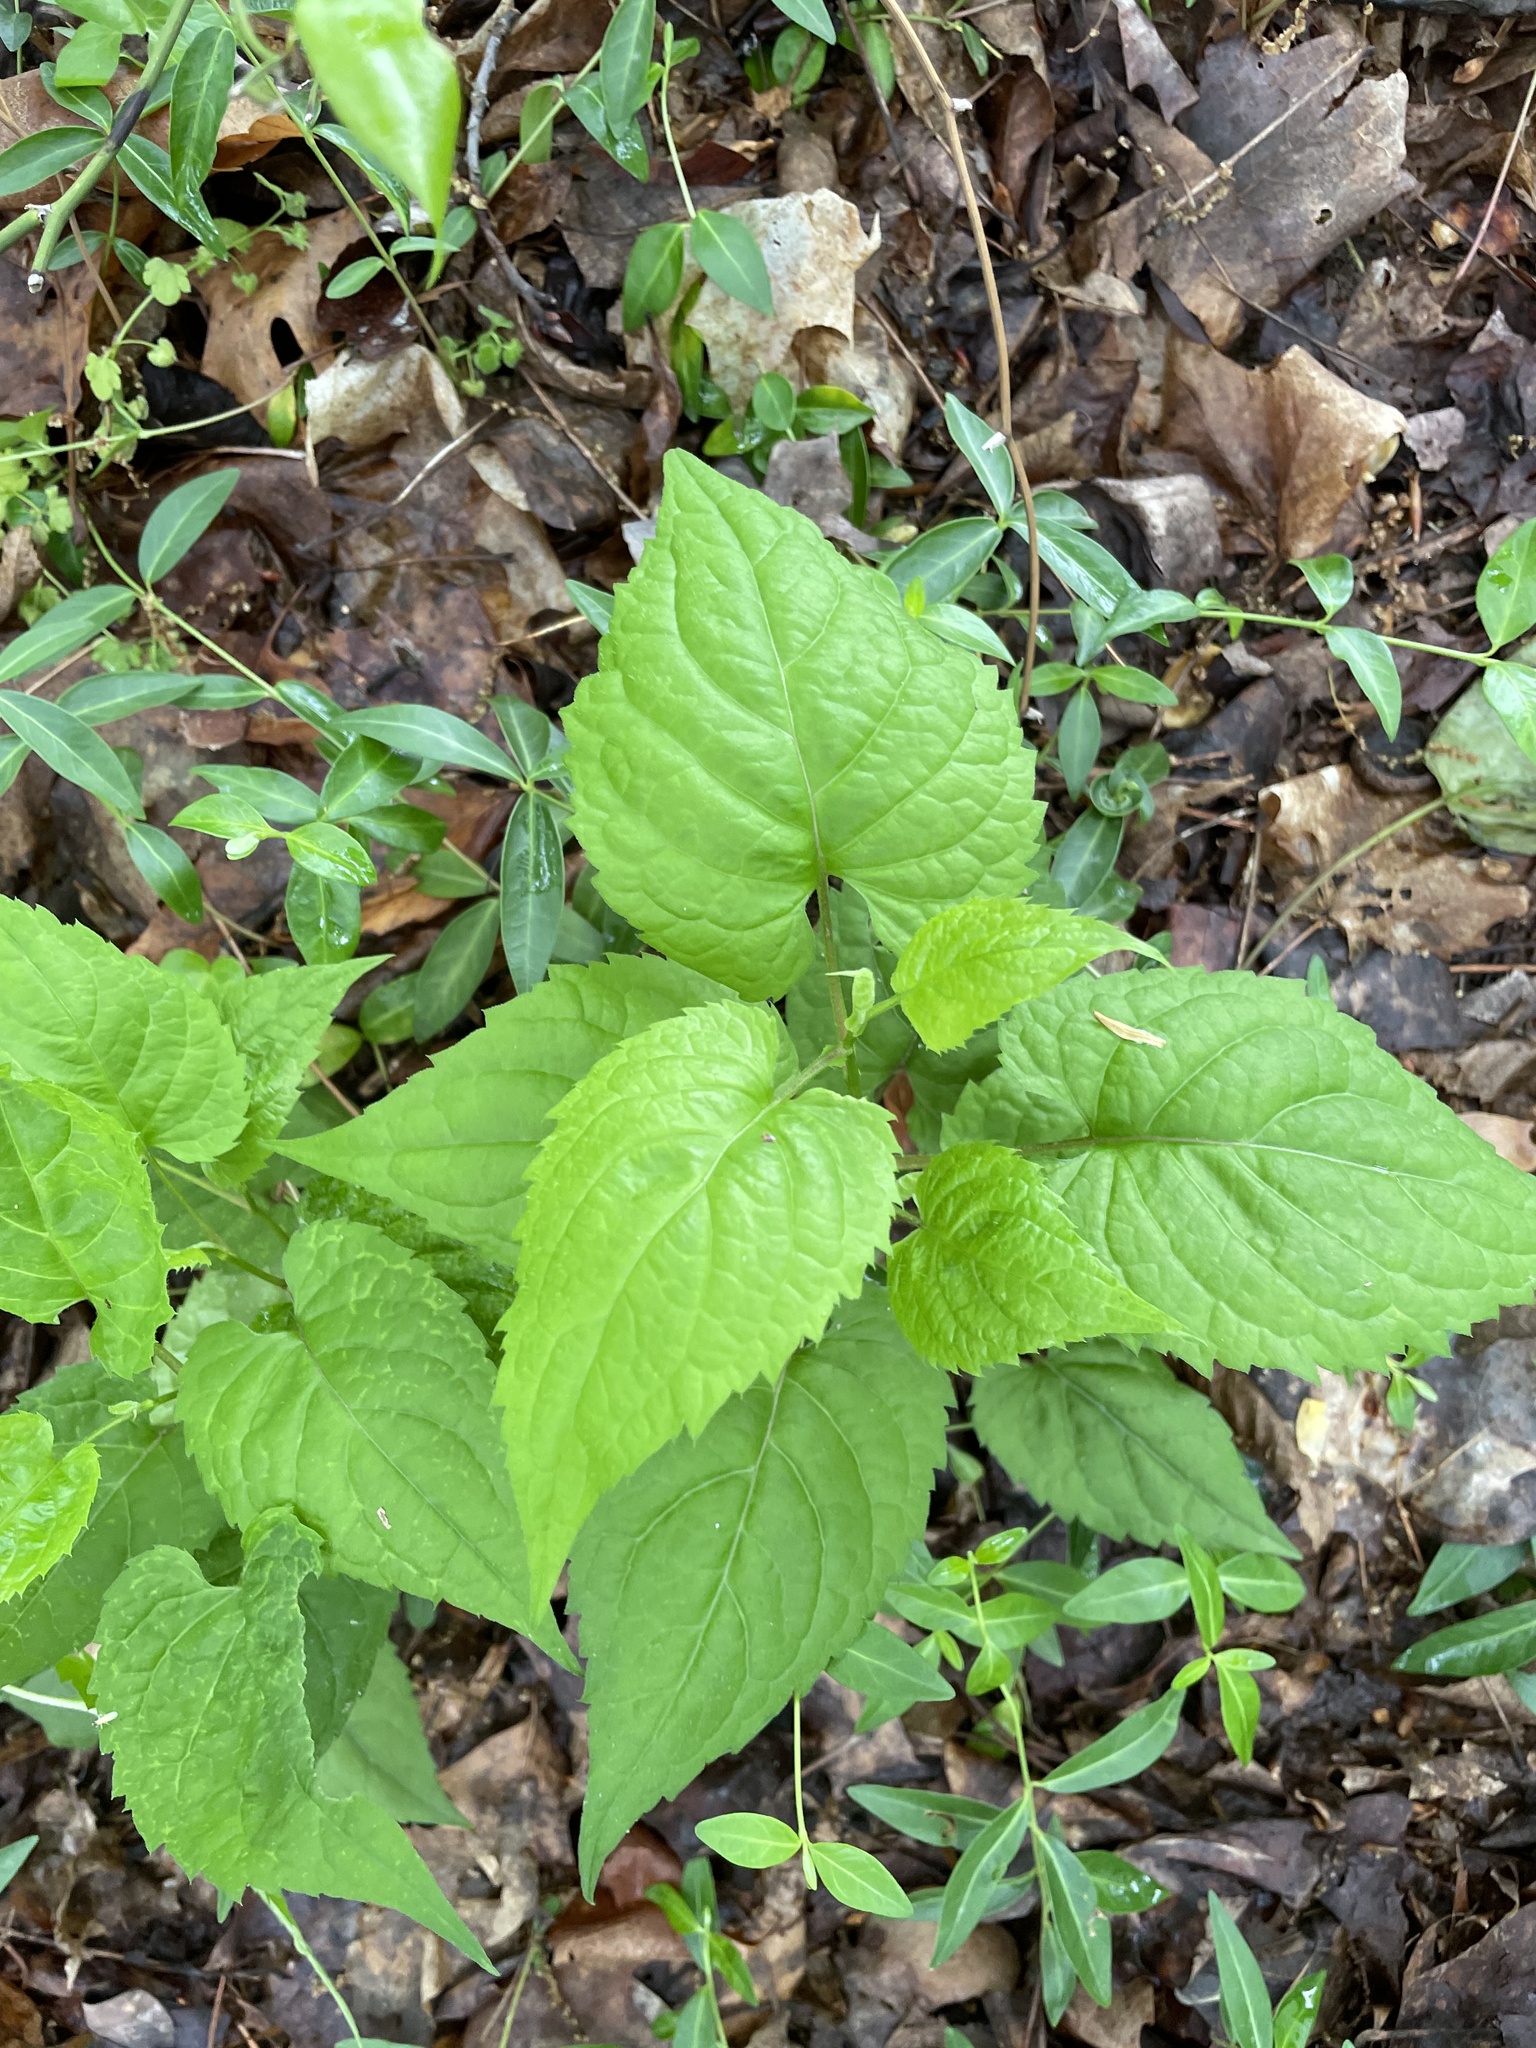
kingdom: Plantae
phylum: Tracheophyta
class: Magnoliopsida
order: Asterales
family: Asteraceae
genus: Eurybia
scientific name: Eurybia divaricata
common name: White wood aster
